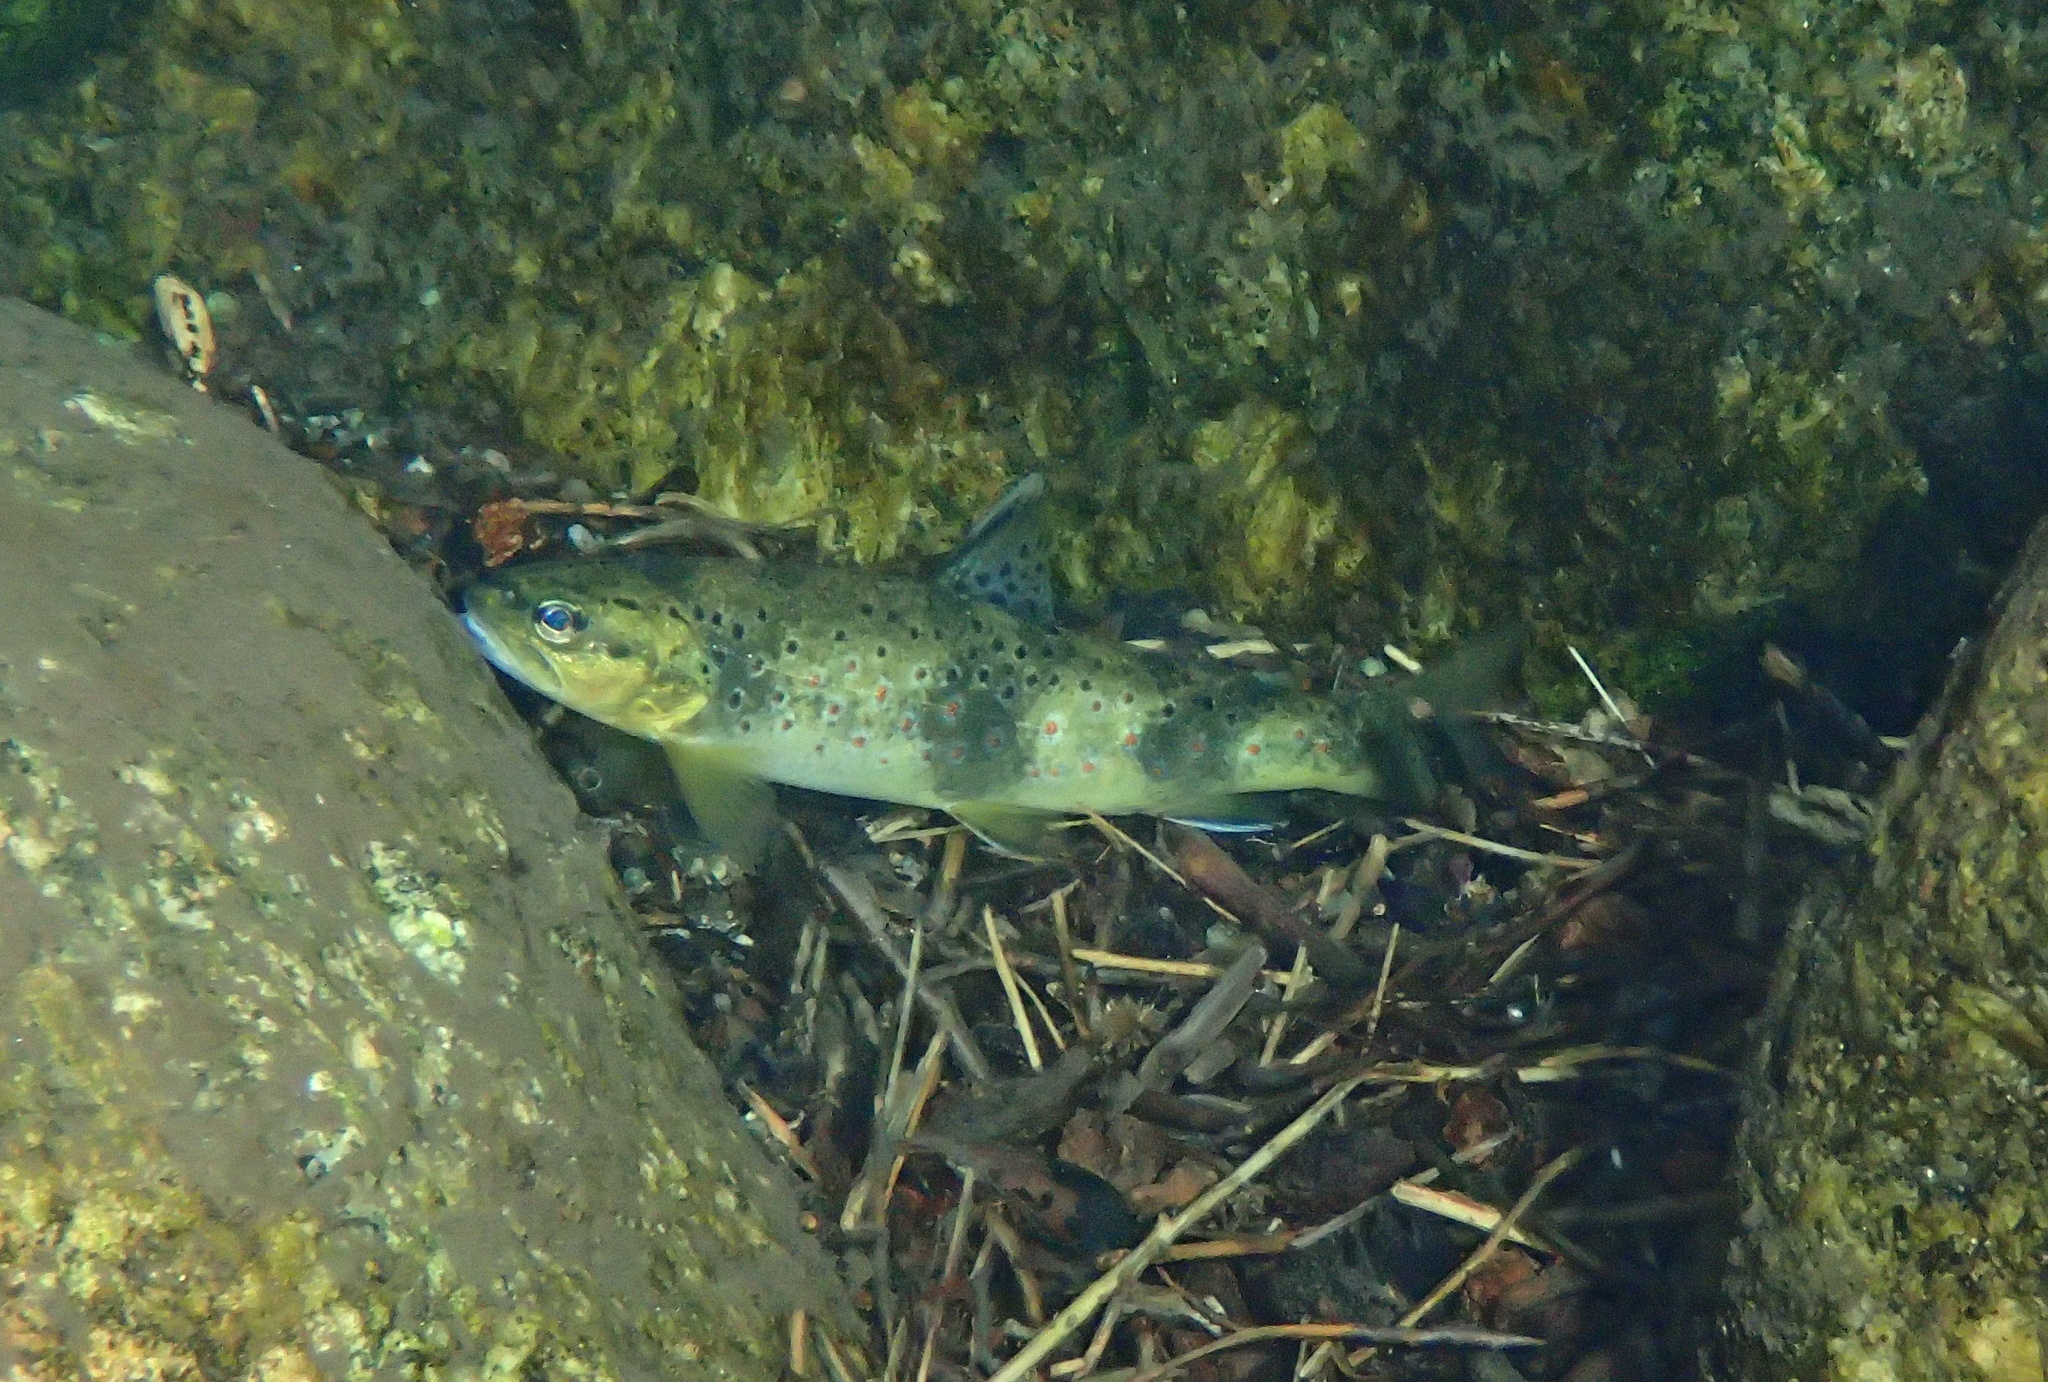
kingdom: Animalia
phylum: Chordata
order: Salmoniformes
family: Salmonidae
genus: Salmo
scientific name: Salmo trutta
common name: Brown trout
